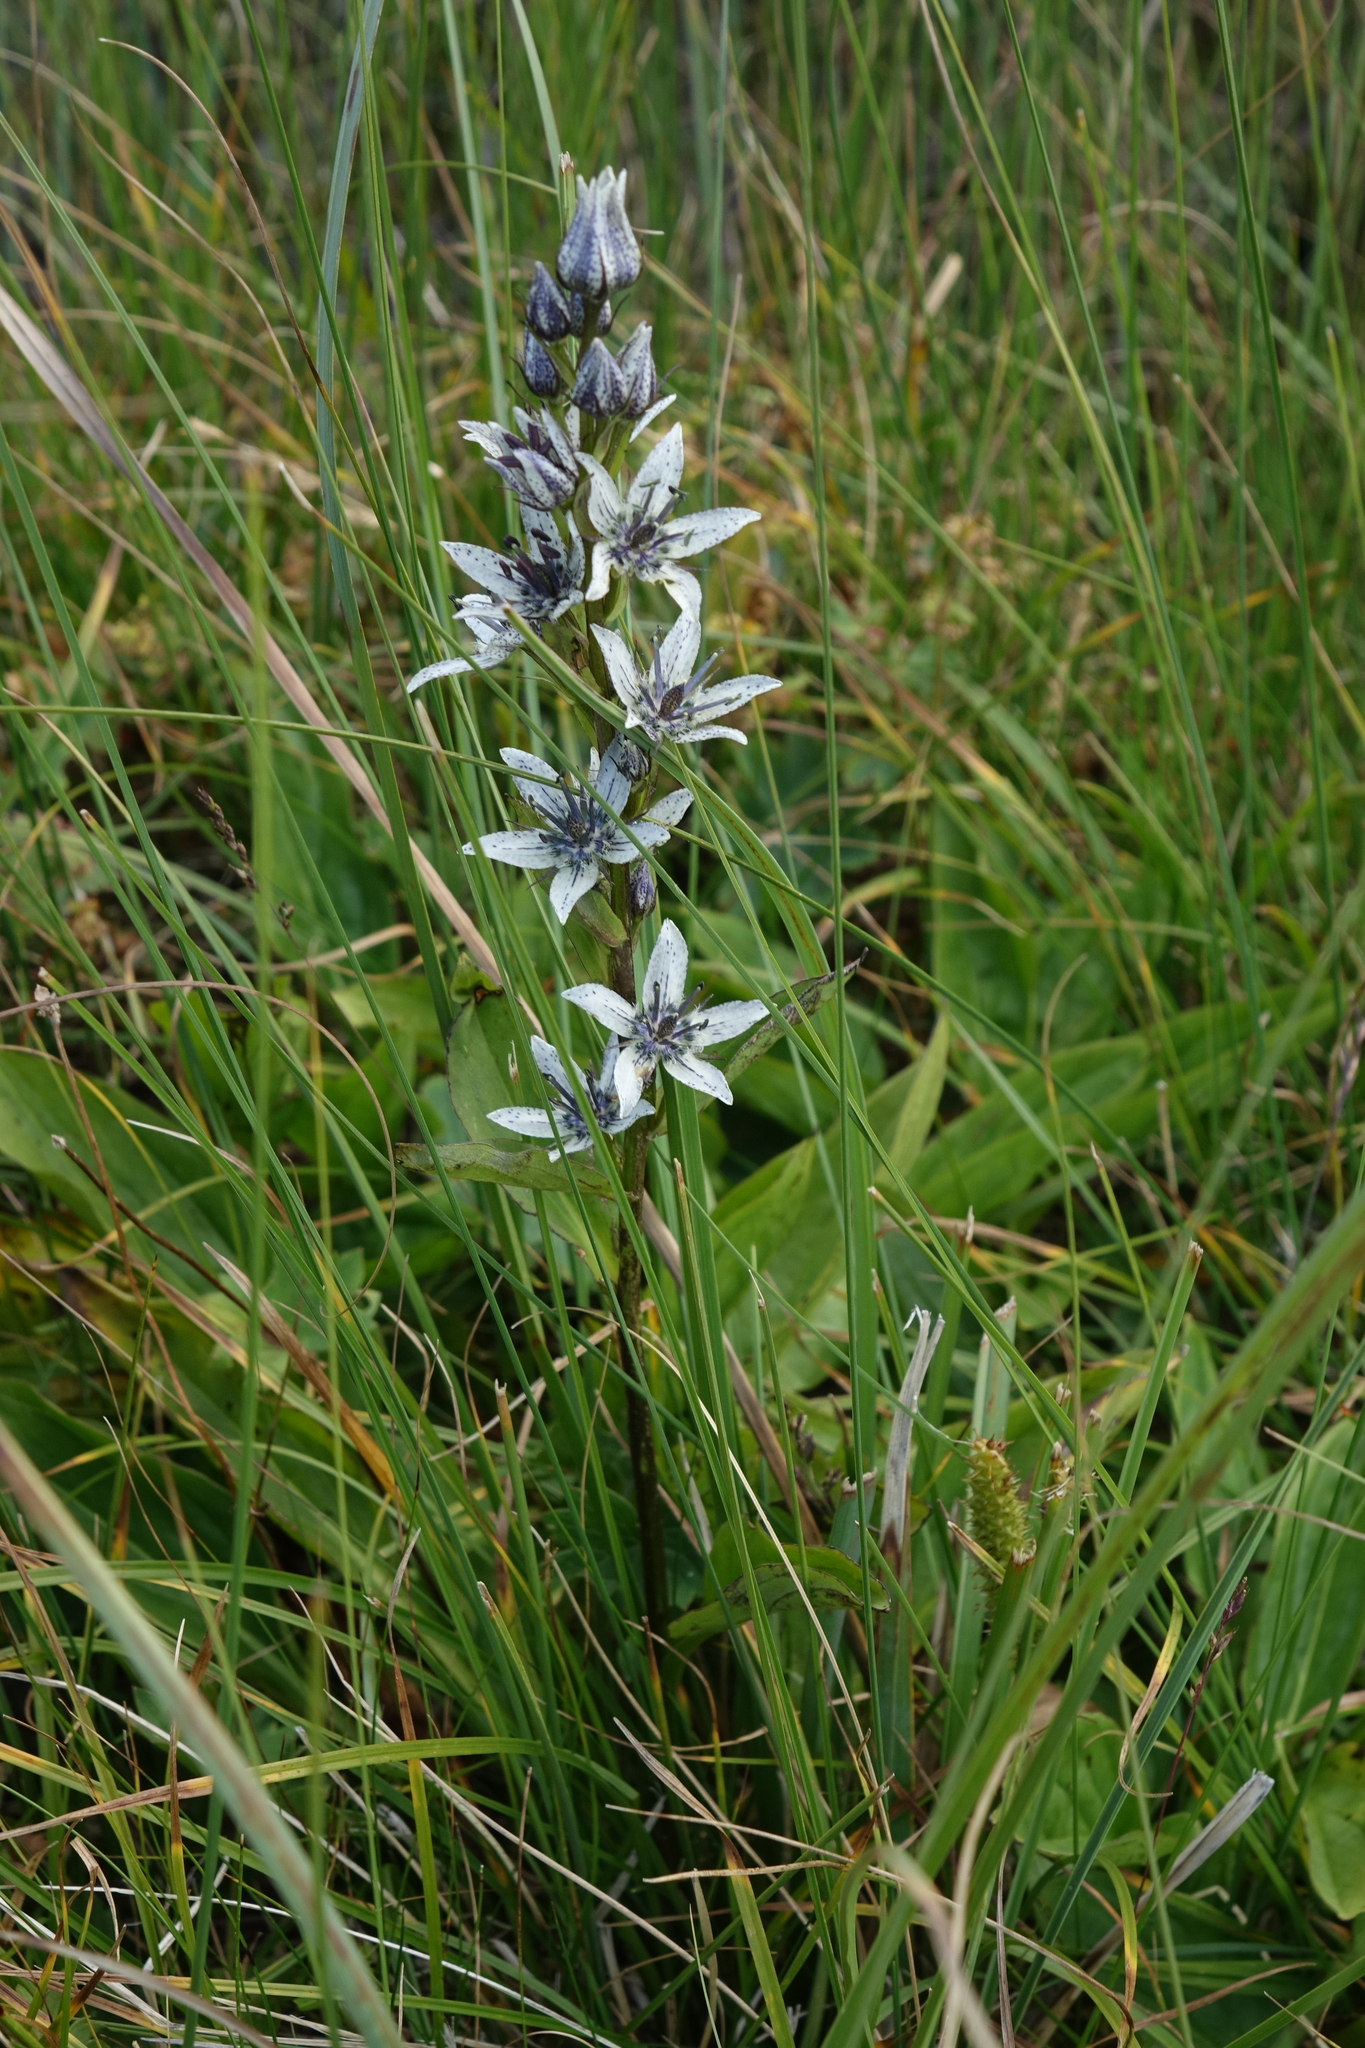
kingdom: Plantae
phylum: Tracheophyta
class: Magnoliopsida
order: Gentianales
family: Gentianaceae
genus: Swertia
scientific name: Swertia iberica
